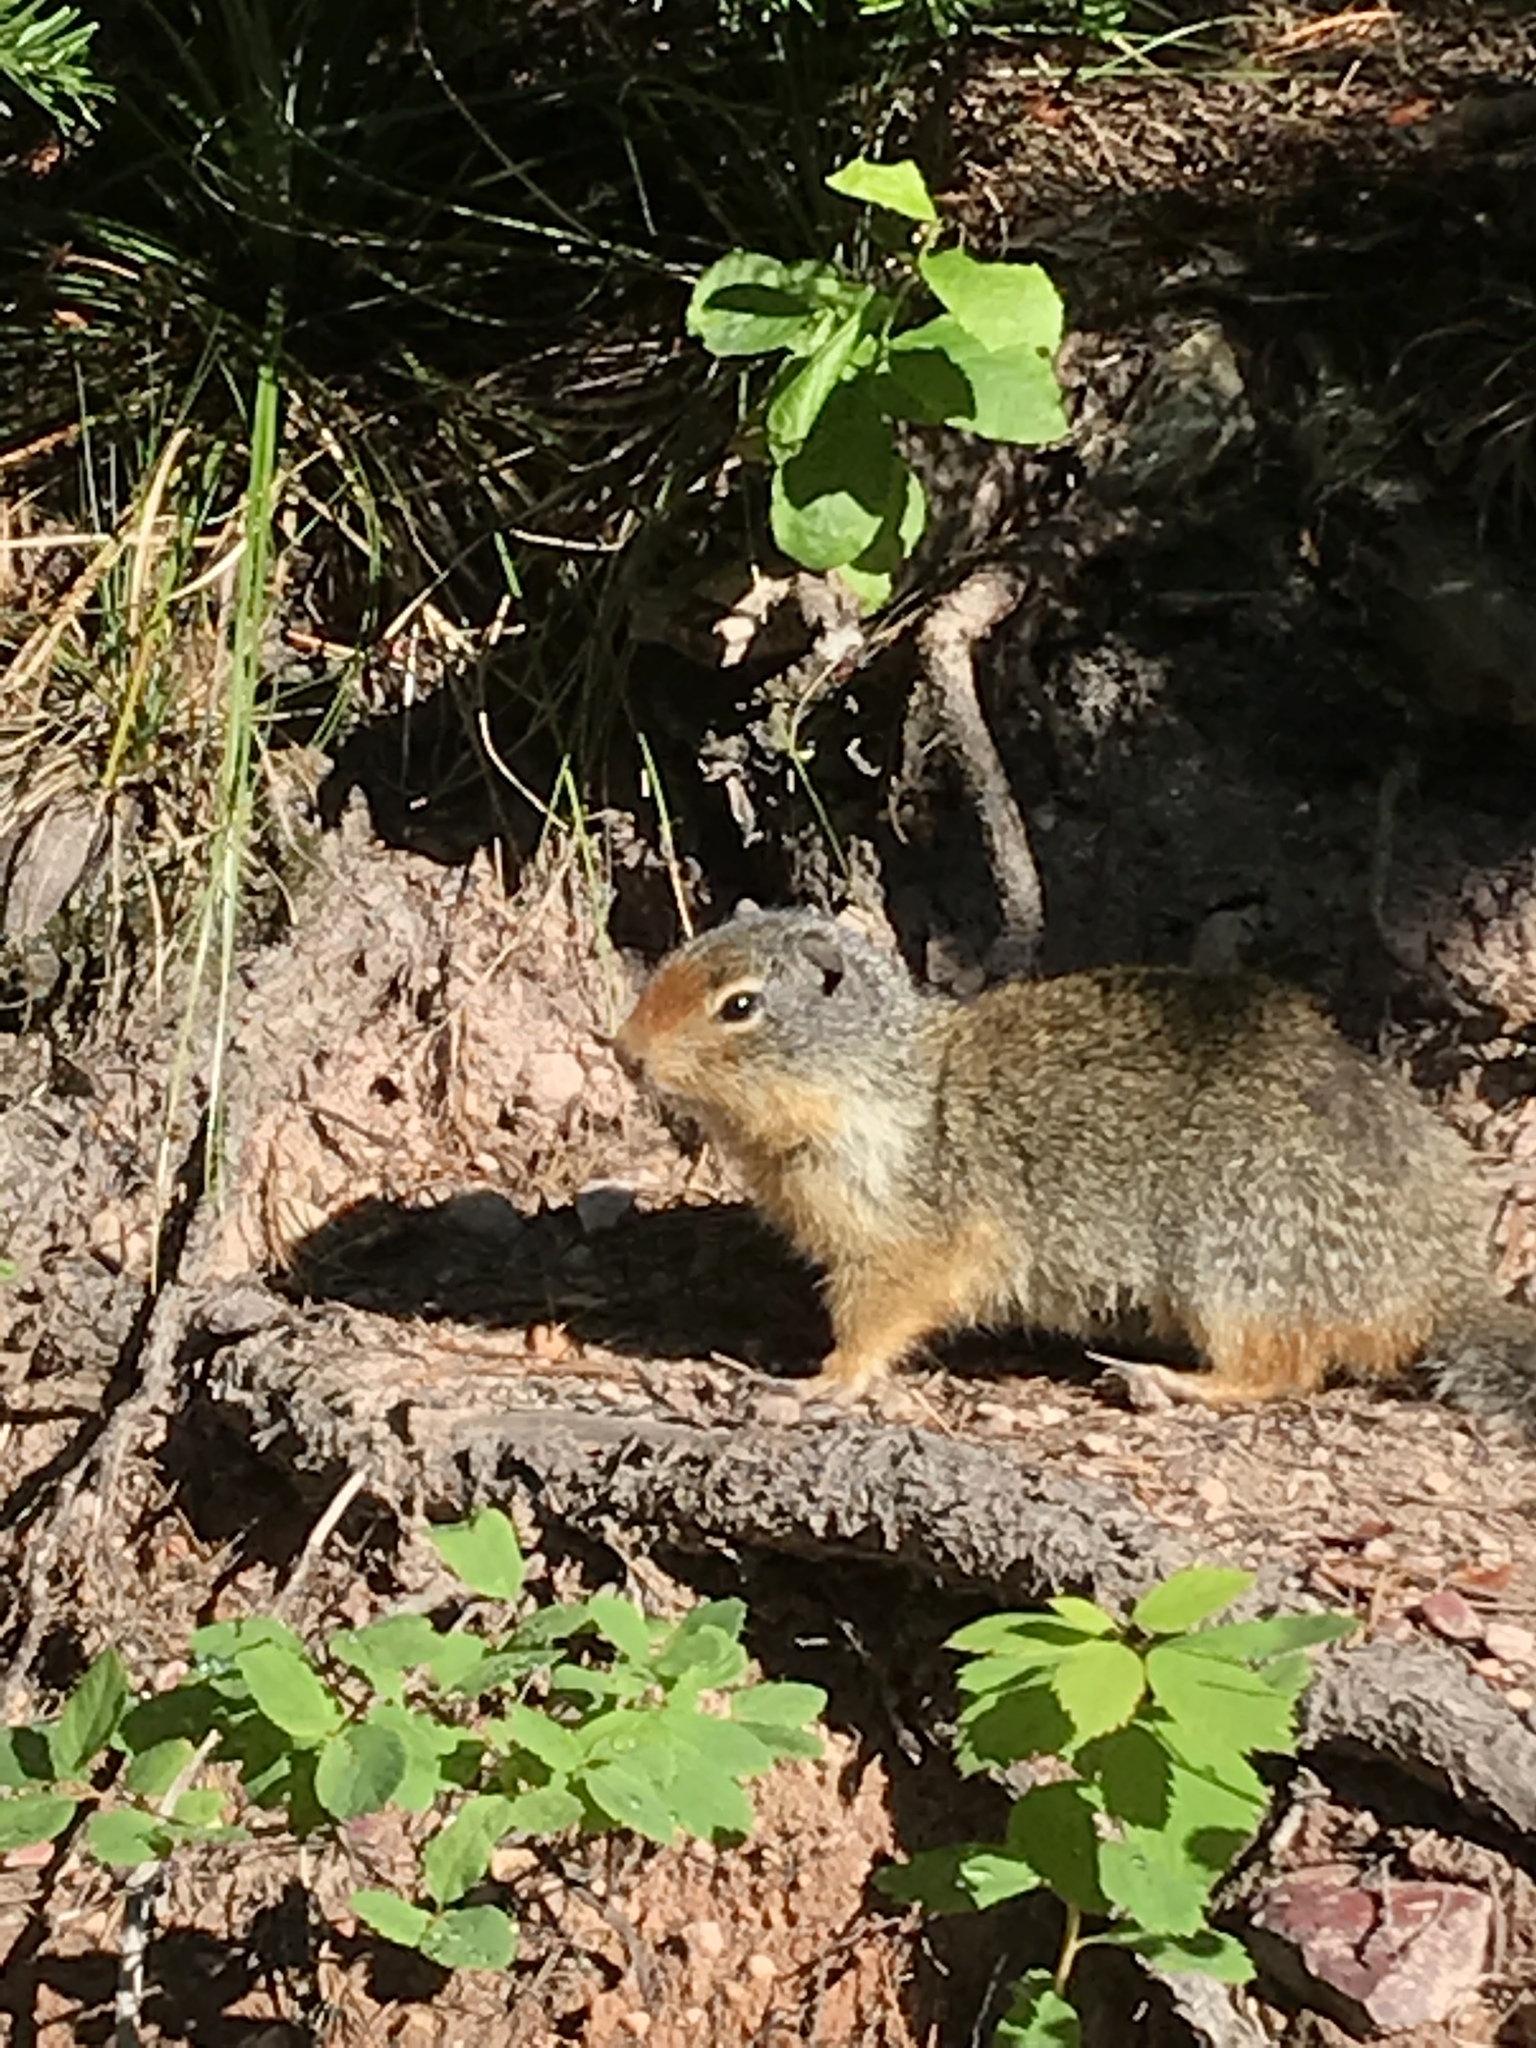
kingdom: Animalia
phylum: Chordata
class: Mammalia
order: Rodentia
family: Sciuridae
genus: Urocitellus
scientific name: Urocitellus columbianus
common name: Columbian ground squirrel
